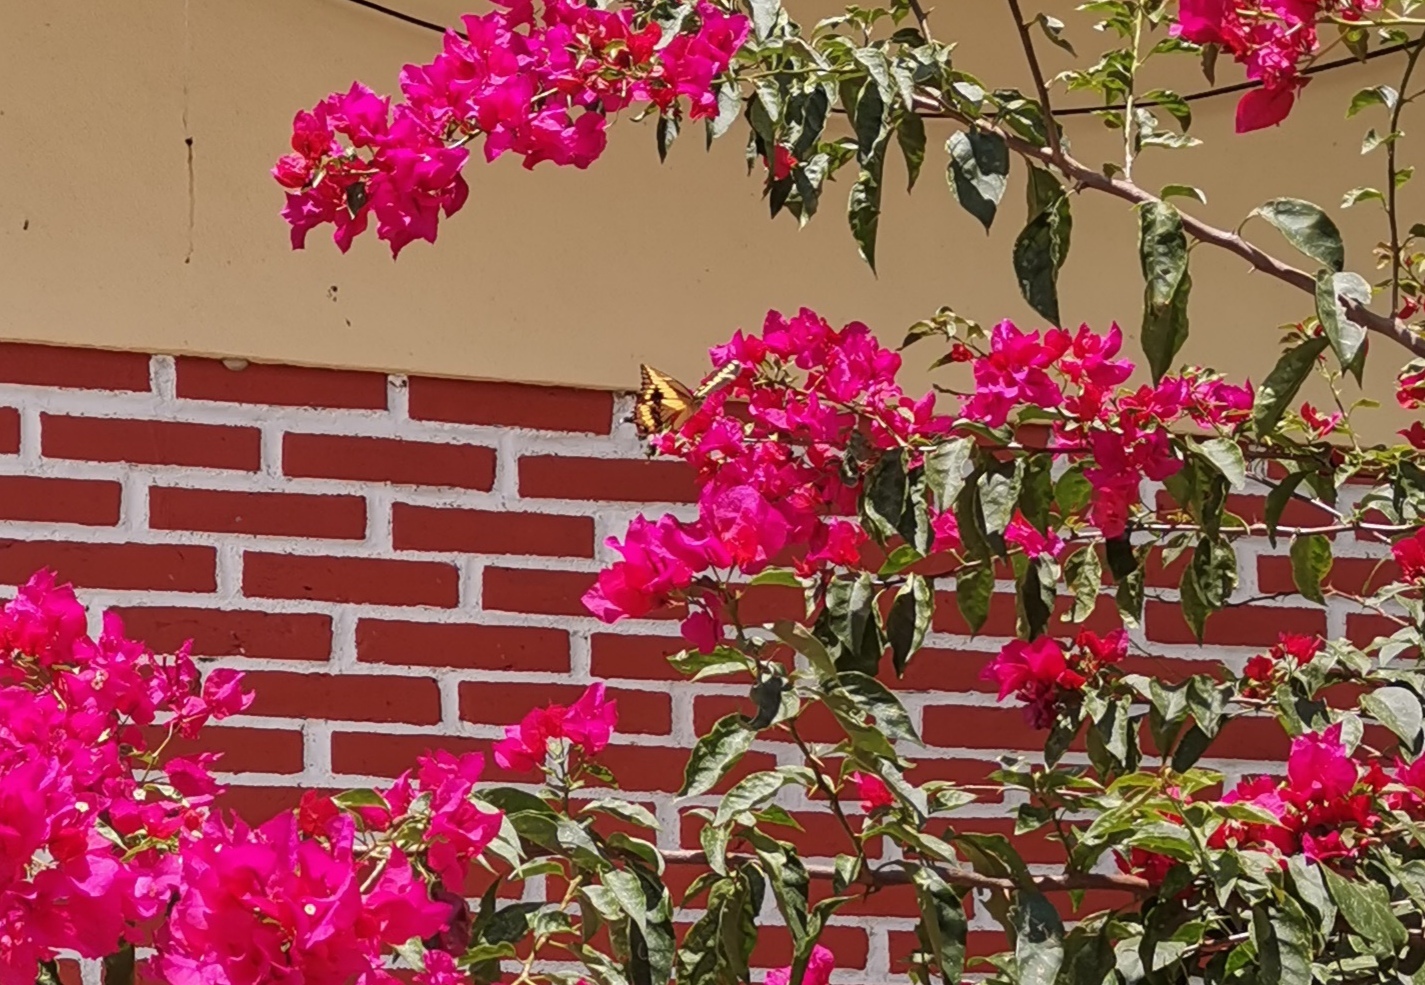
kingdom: Animalia
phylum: Arthropoda
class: Insecta
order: Lepidoptera
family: Papilionidae
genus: Papilio
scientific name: Papilio rumiko
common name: Western giant swallowtail
